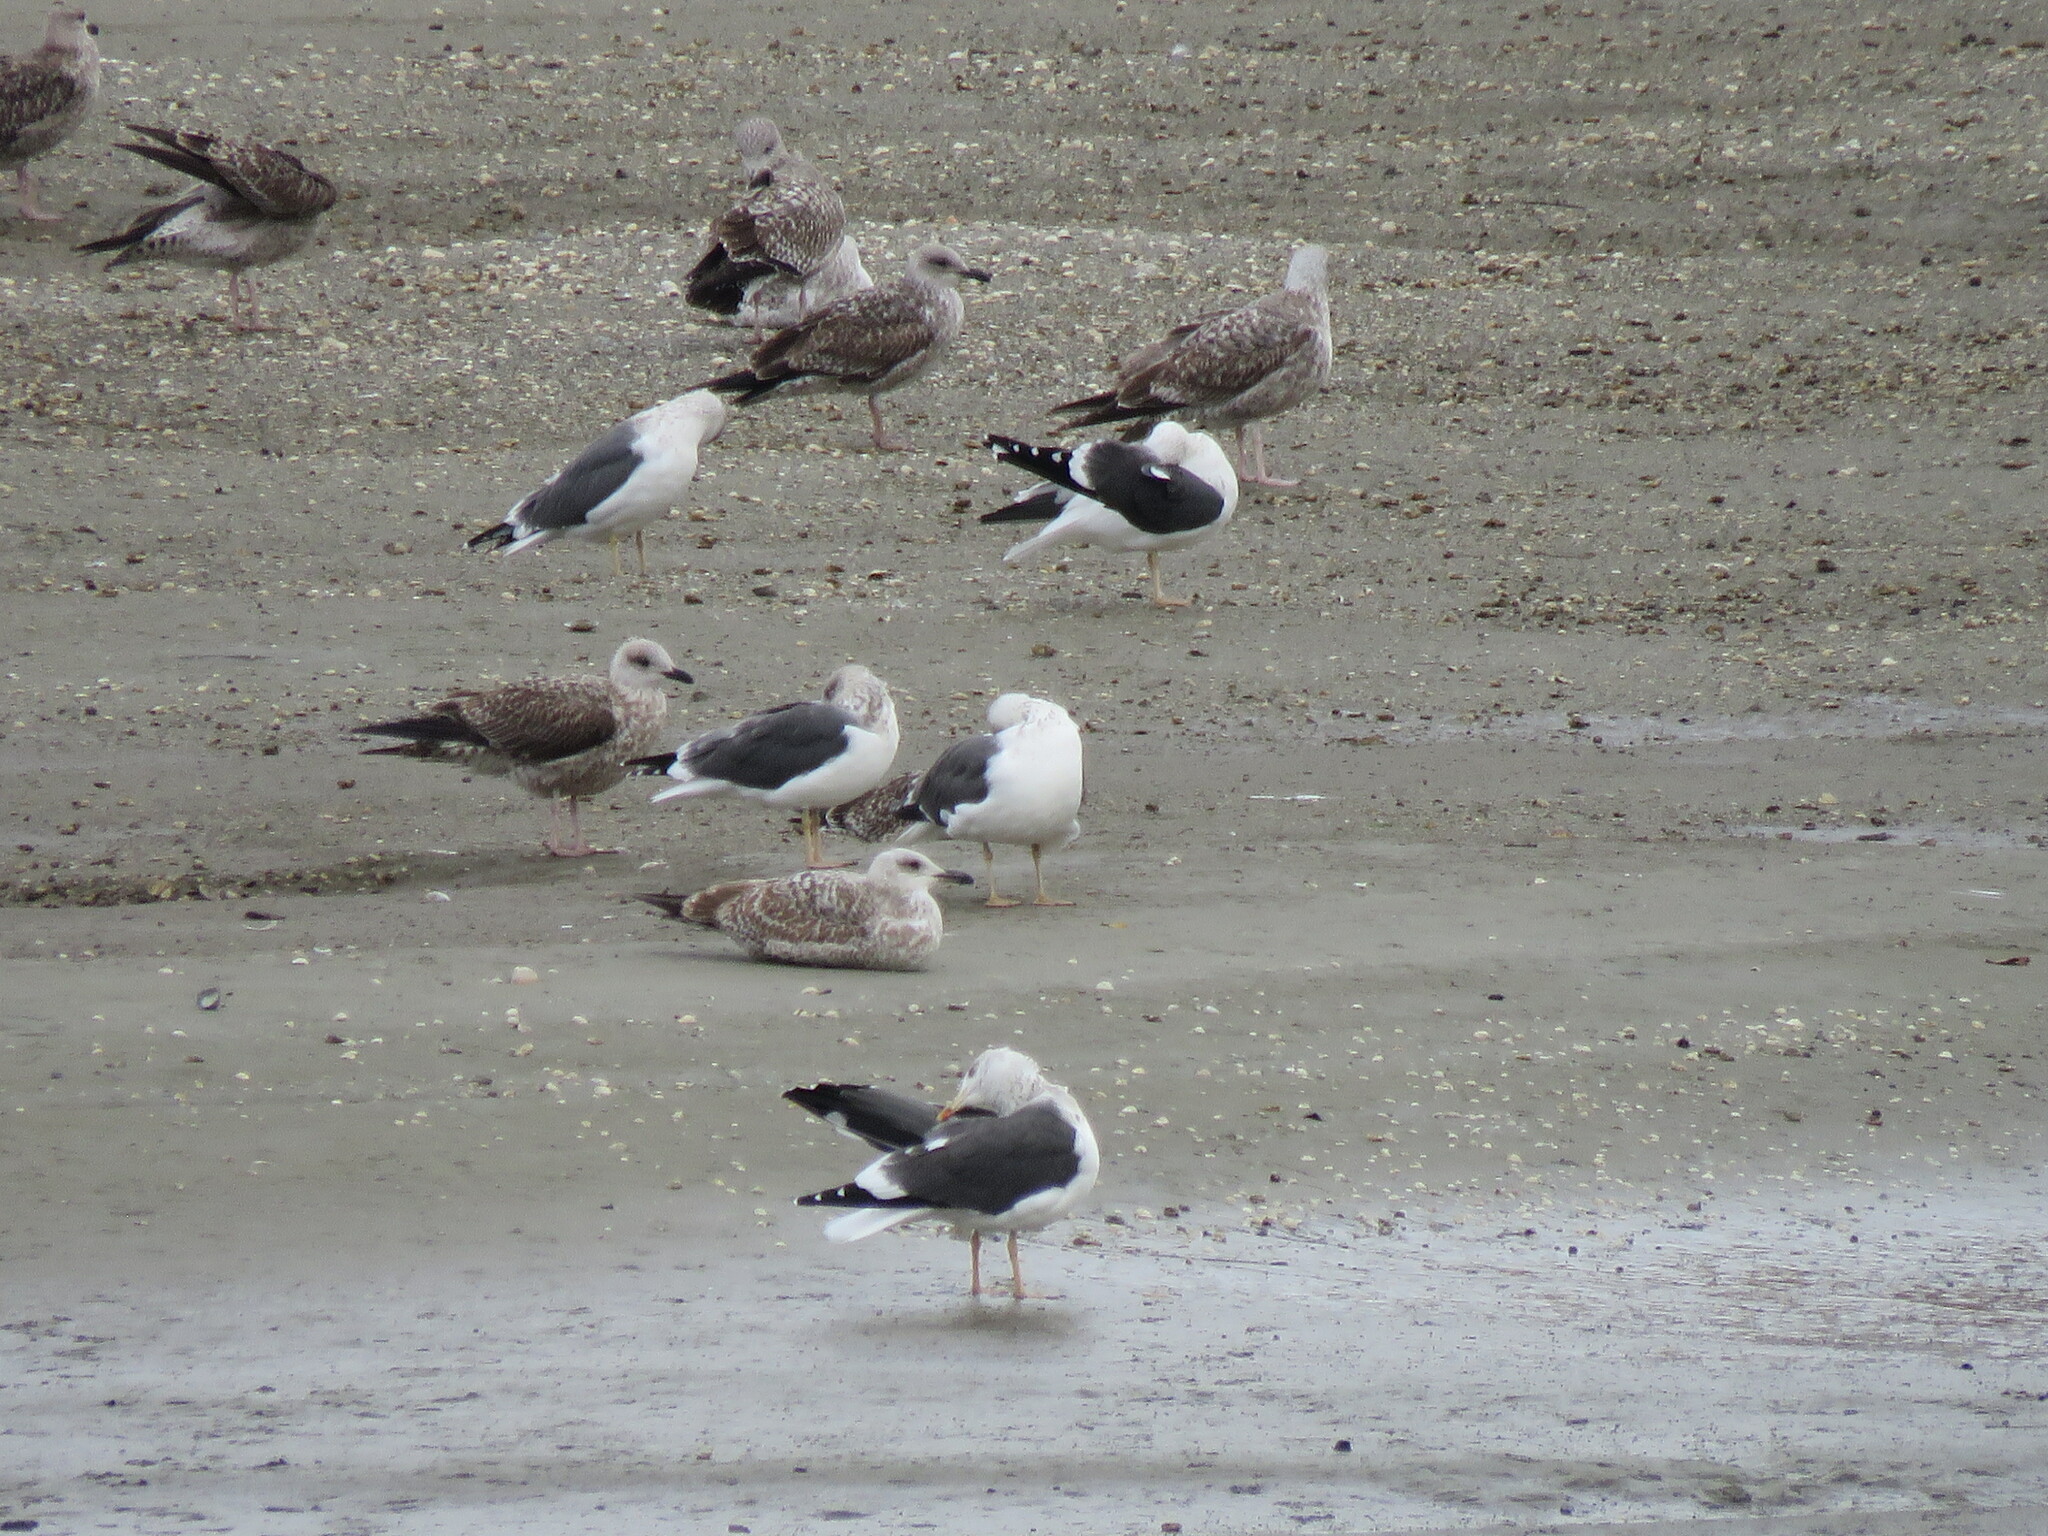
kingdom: Animalia
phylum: Chordata
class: Aves
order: Charadriiformes
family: Laridae
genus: Larus
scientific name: Larus argentatus
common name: Herring gull
